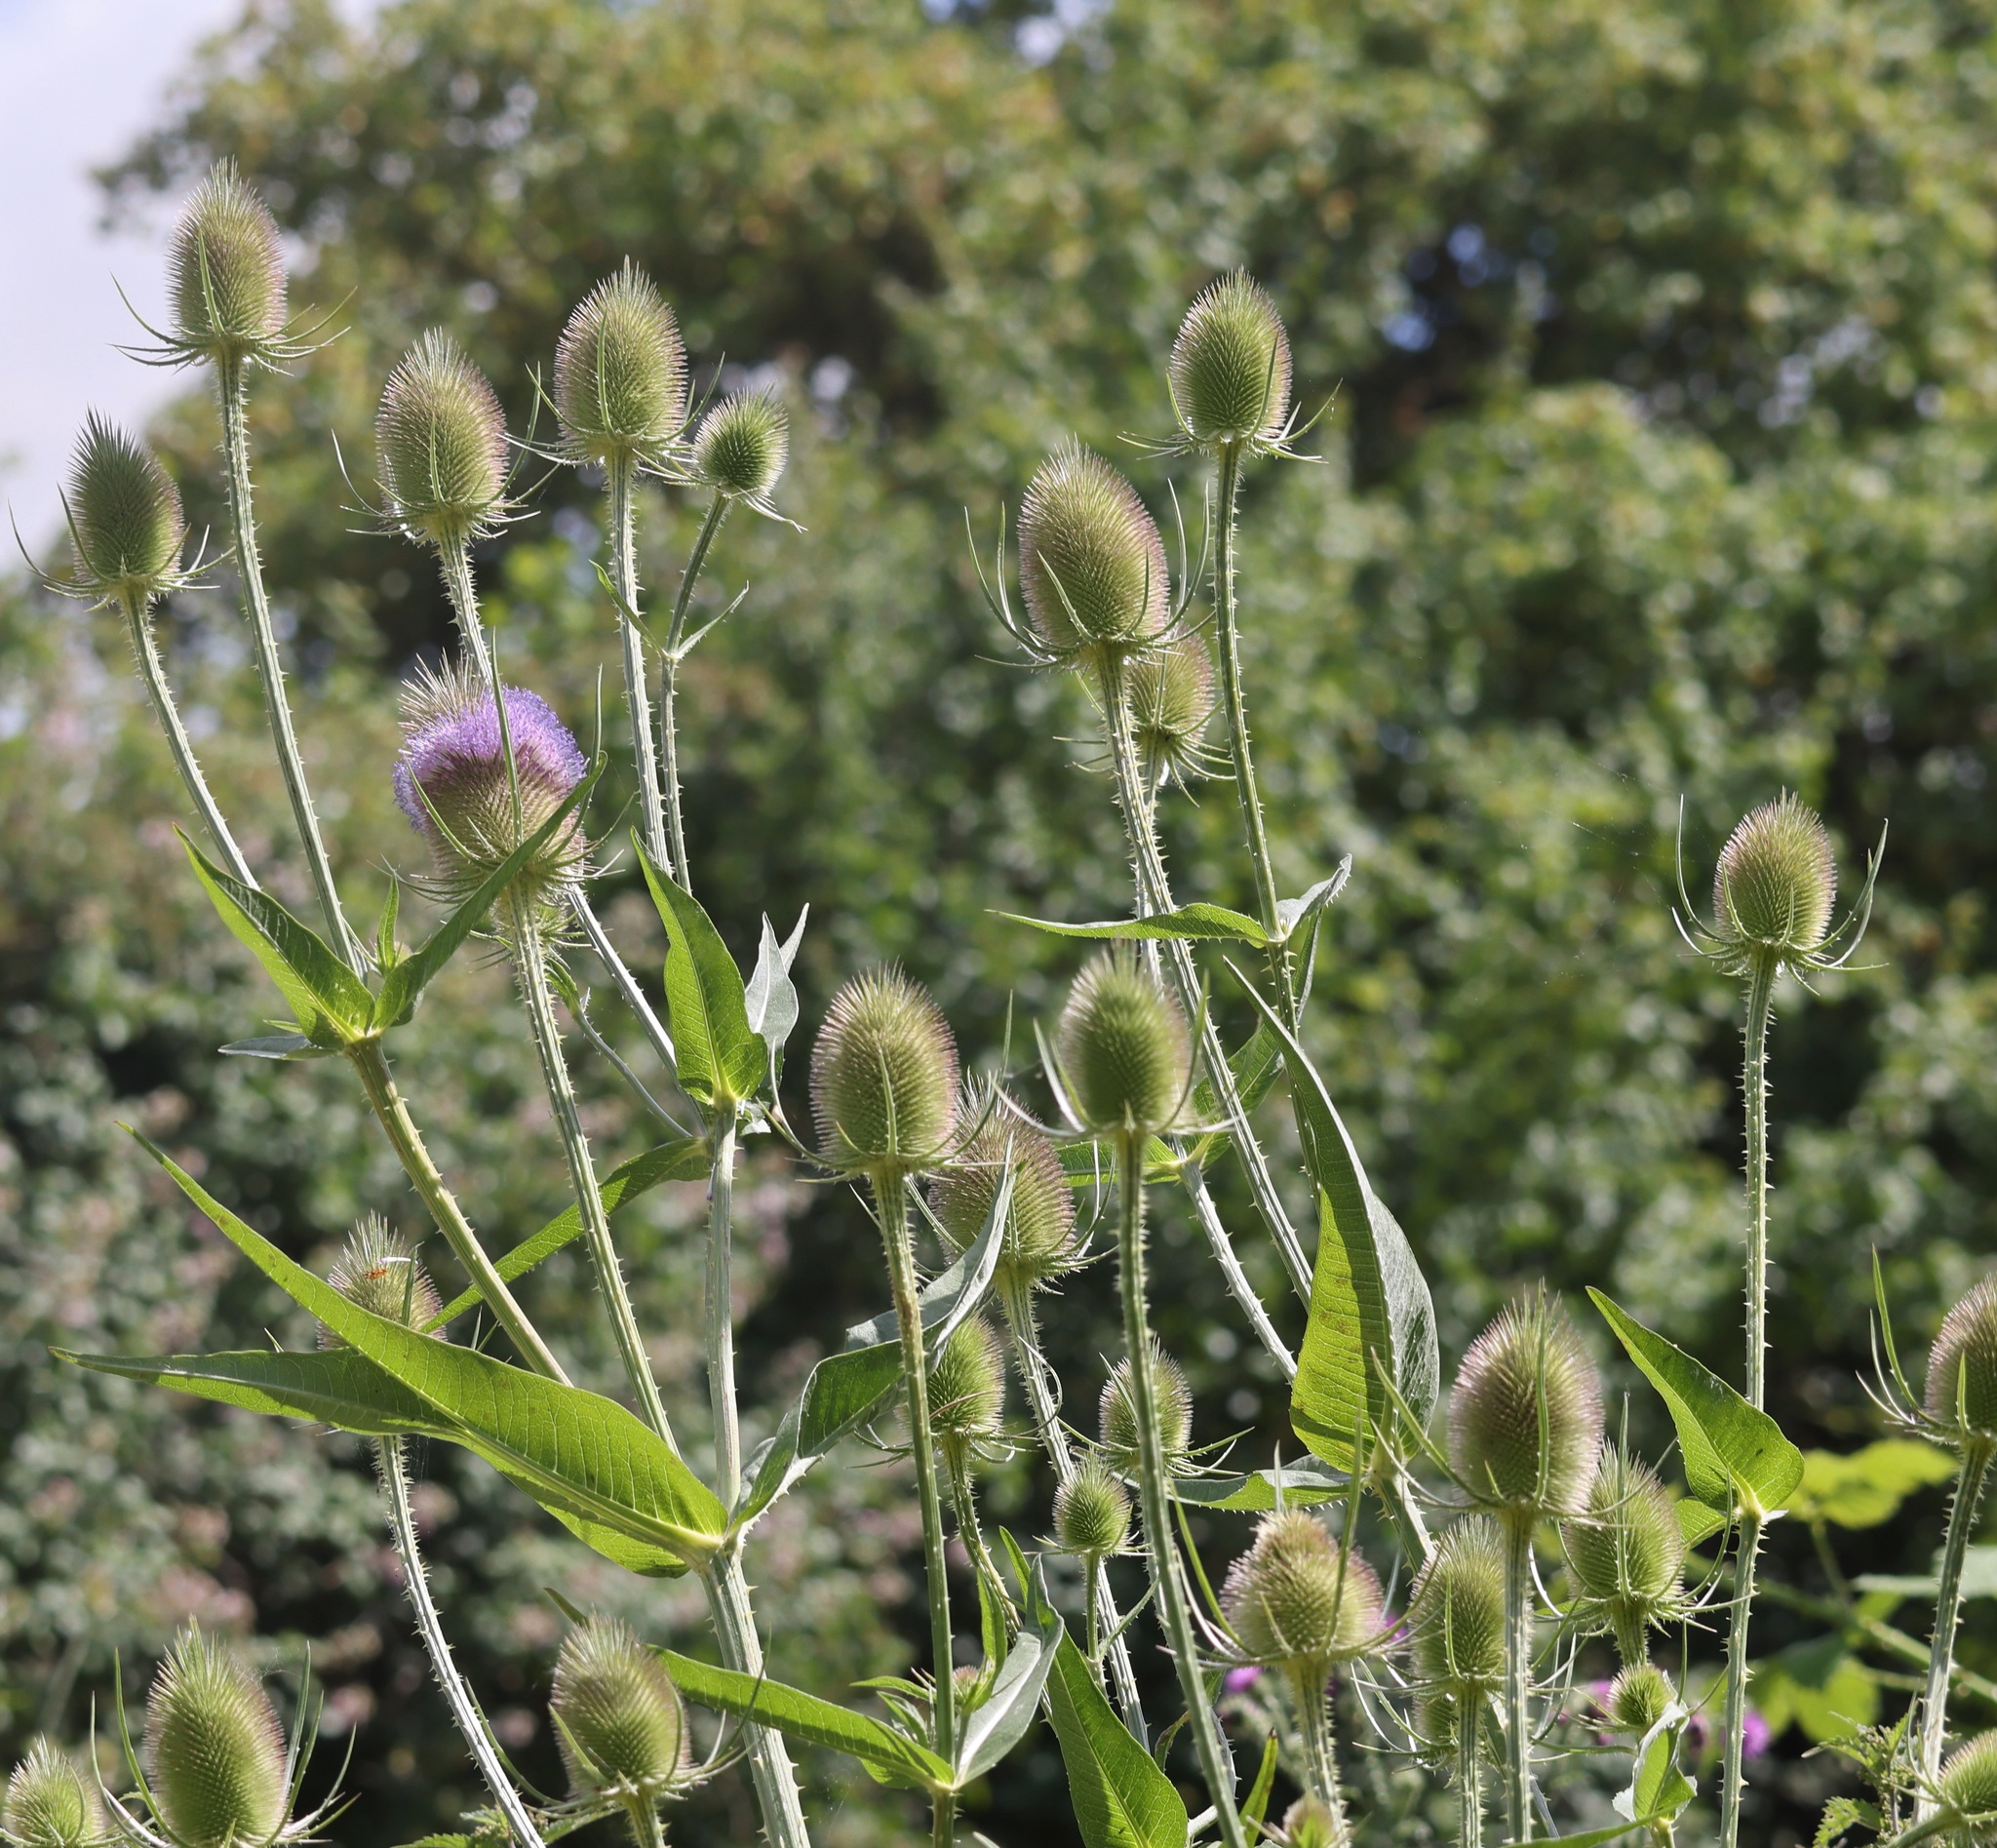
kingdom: Plantae
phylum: Tracheophyta
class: Magnoliopsida
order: Dipsacales
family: Caprifoliaceae
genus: Dipsacus
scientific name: Dipsacus fullonum
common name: Teasel
